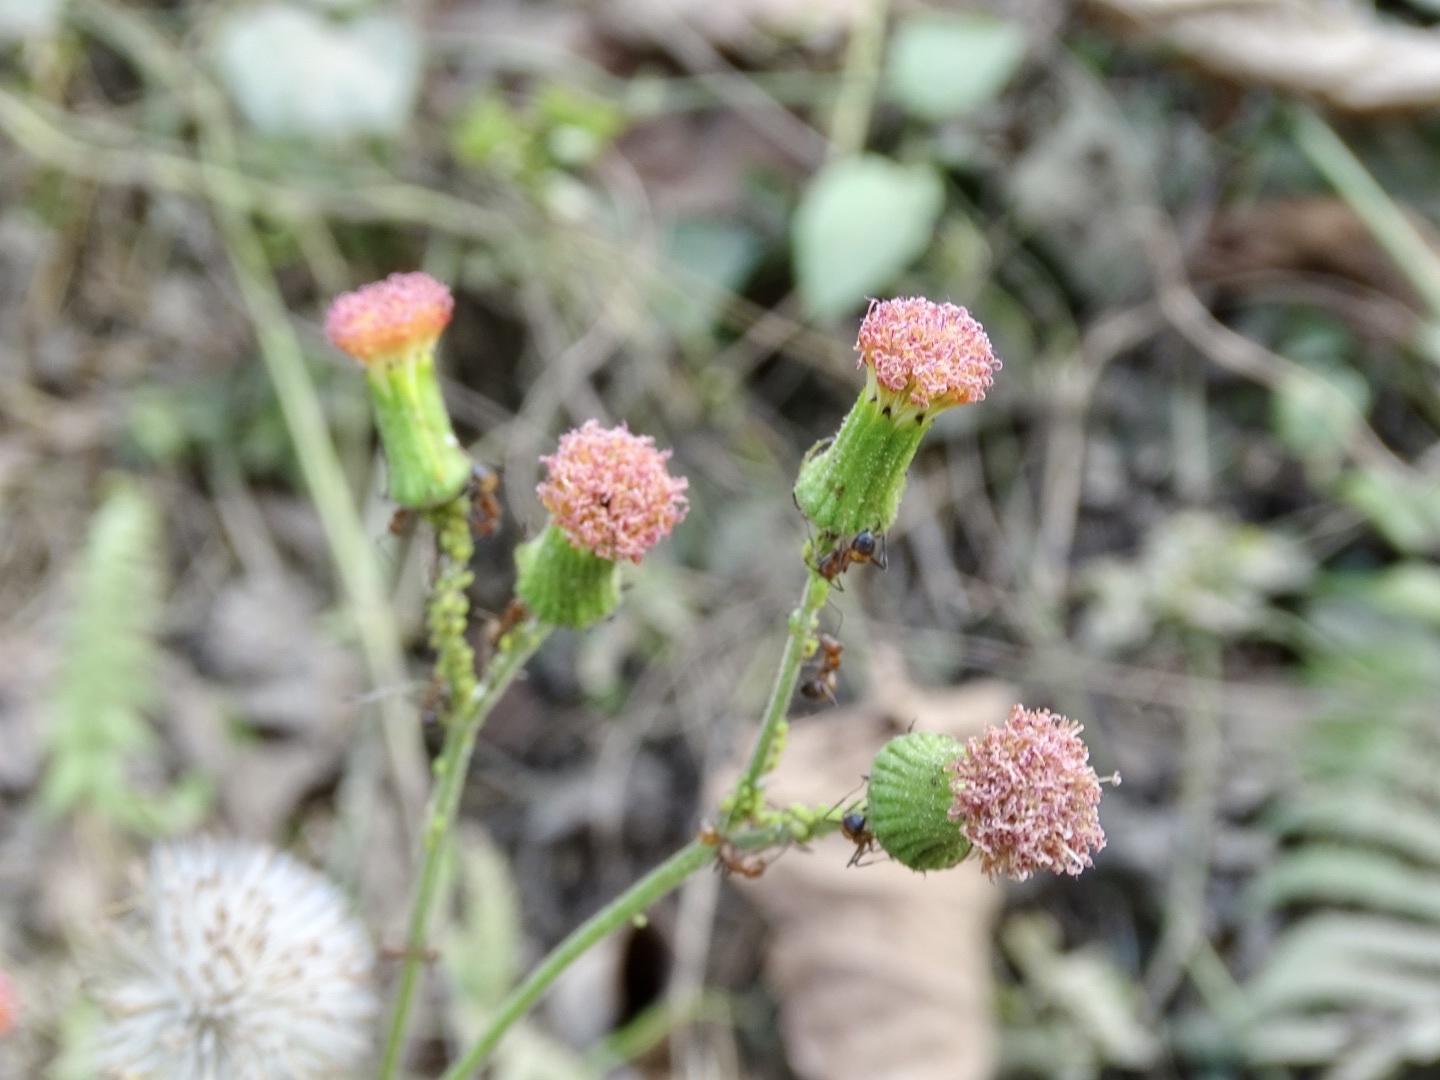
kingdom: Plantae
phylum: Tracheophyta
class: Magnoliopsida
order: Asterales
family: Asteraceae
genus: Crassocephalum
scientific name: Crassocephalum crepidioides
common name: Redflower ragleaf
